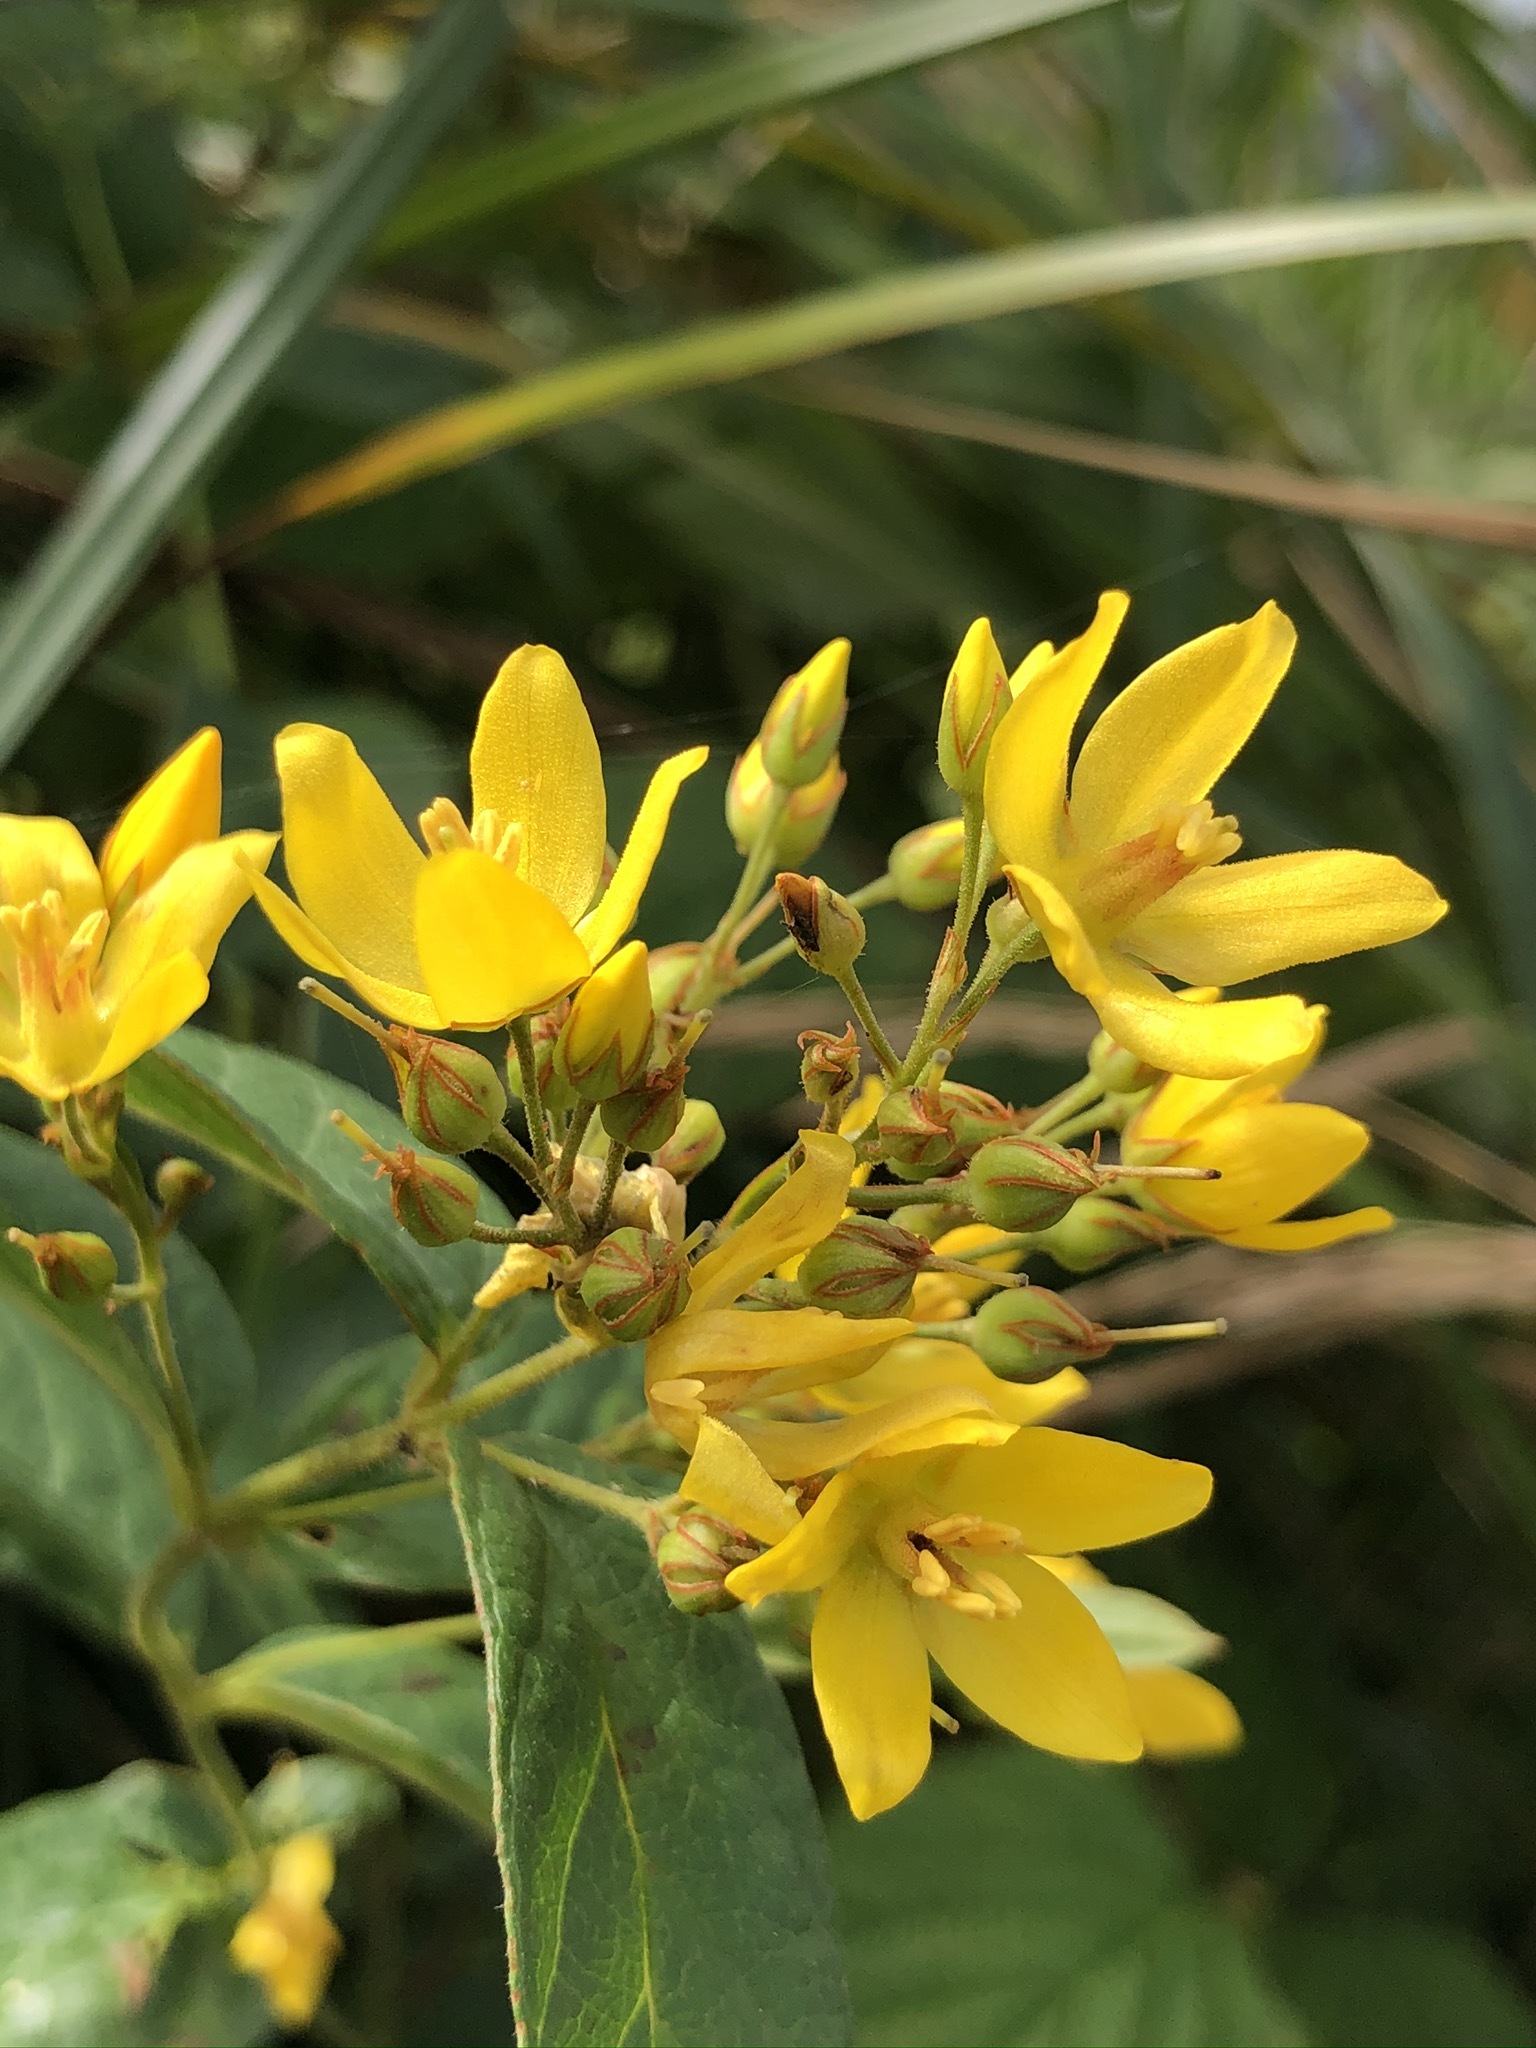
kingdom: Plantae
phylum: Tracheophyta
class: Magnoliopsida
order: Ericales
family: Primulaceae
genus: Lysimachia
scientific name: Lysimachia vulgaris
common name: Yellow loosestrife
